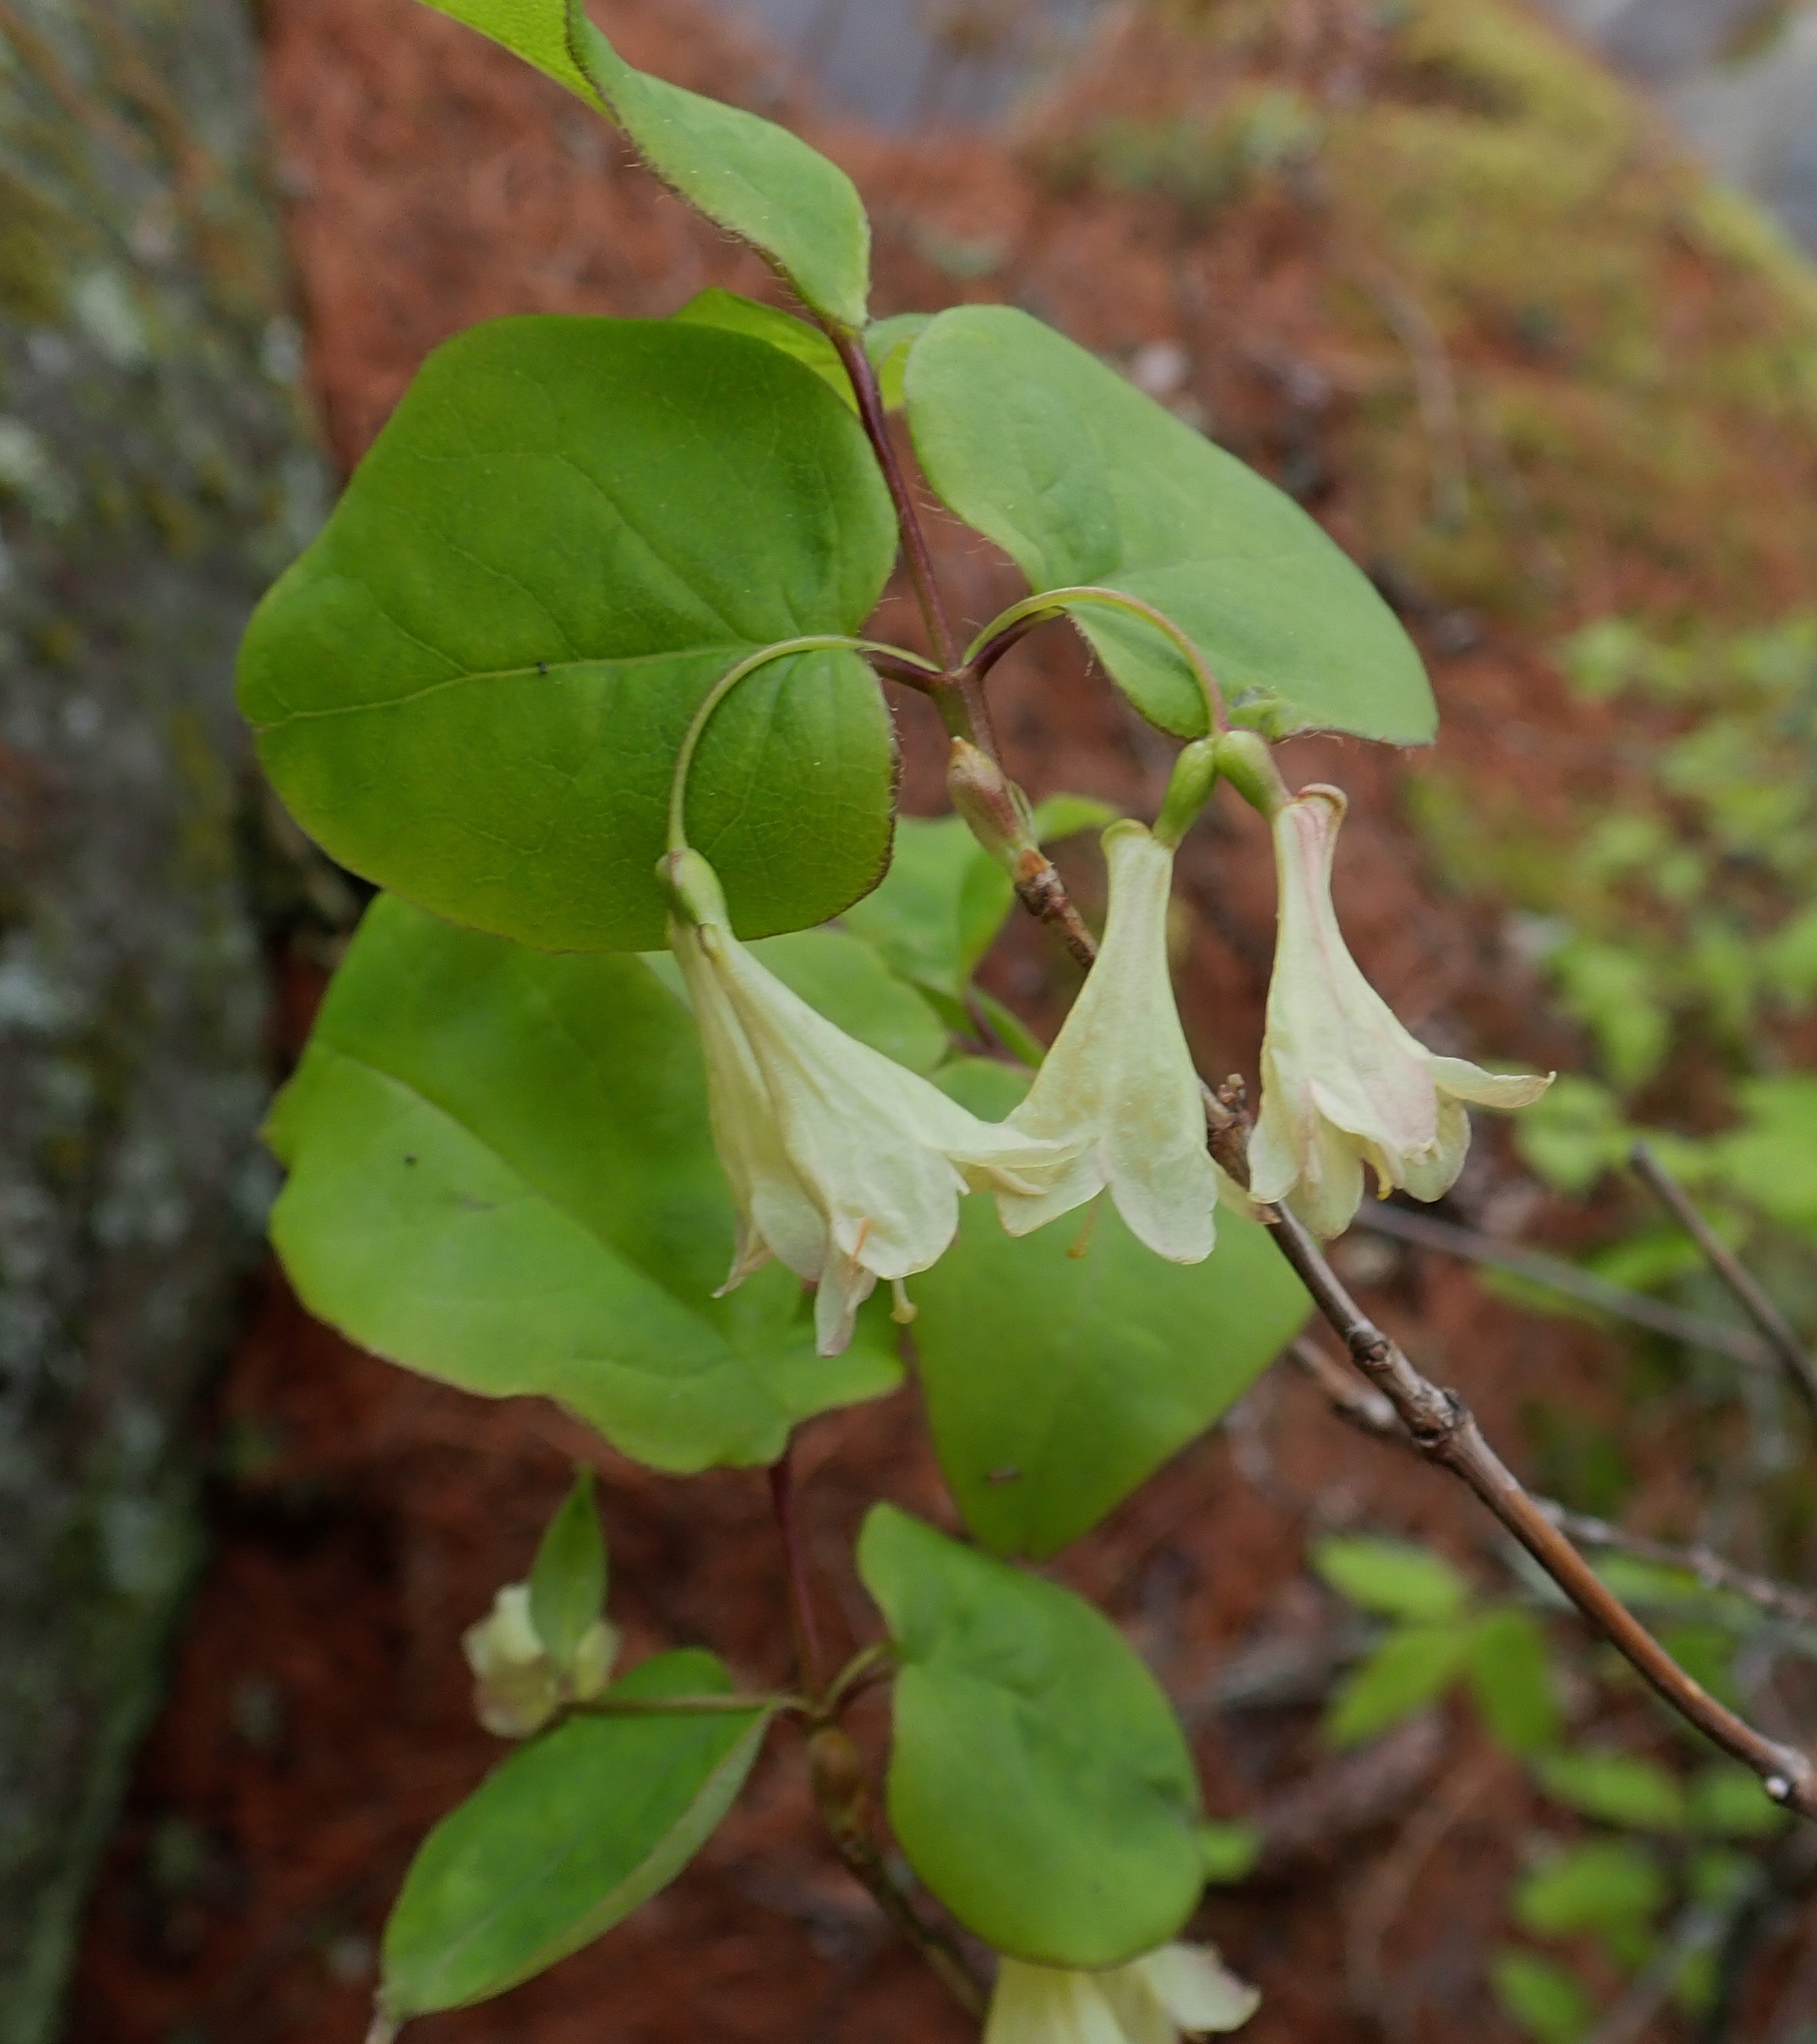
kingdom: Plantae
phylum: Tracheophyta
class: Magnoliopsida
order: Dipsacales
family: Caprifoliaceae
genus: Lonicera
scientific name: Lonicera canadensis
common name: American fly-honeysuckle
